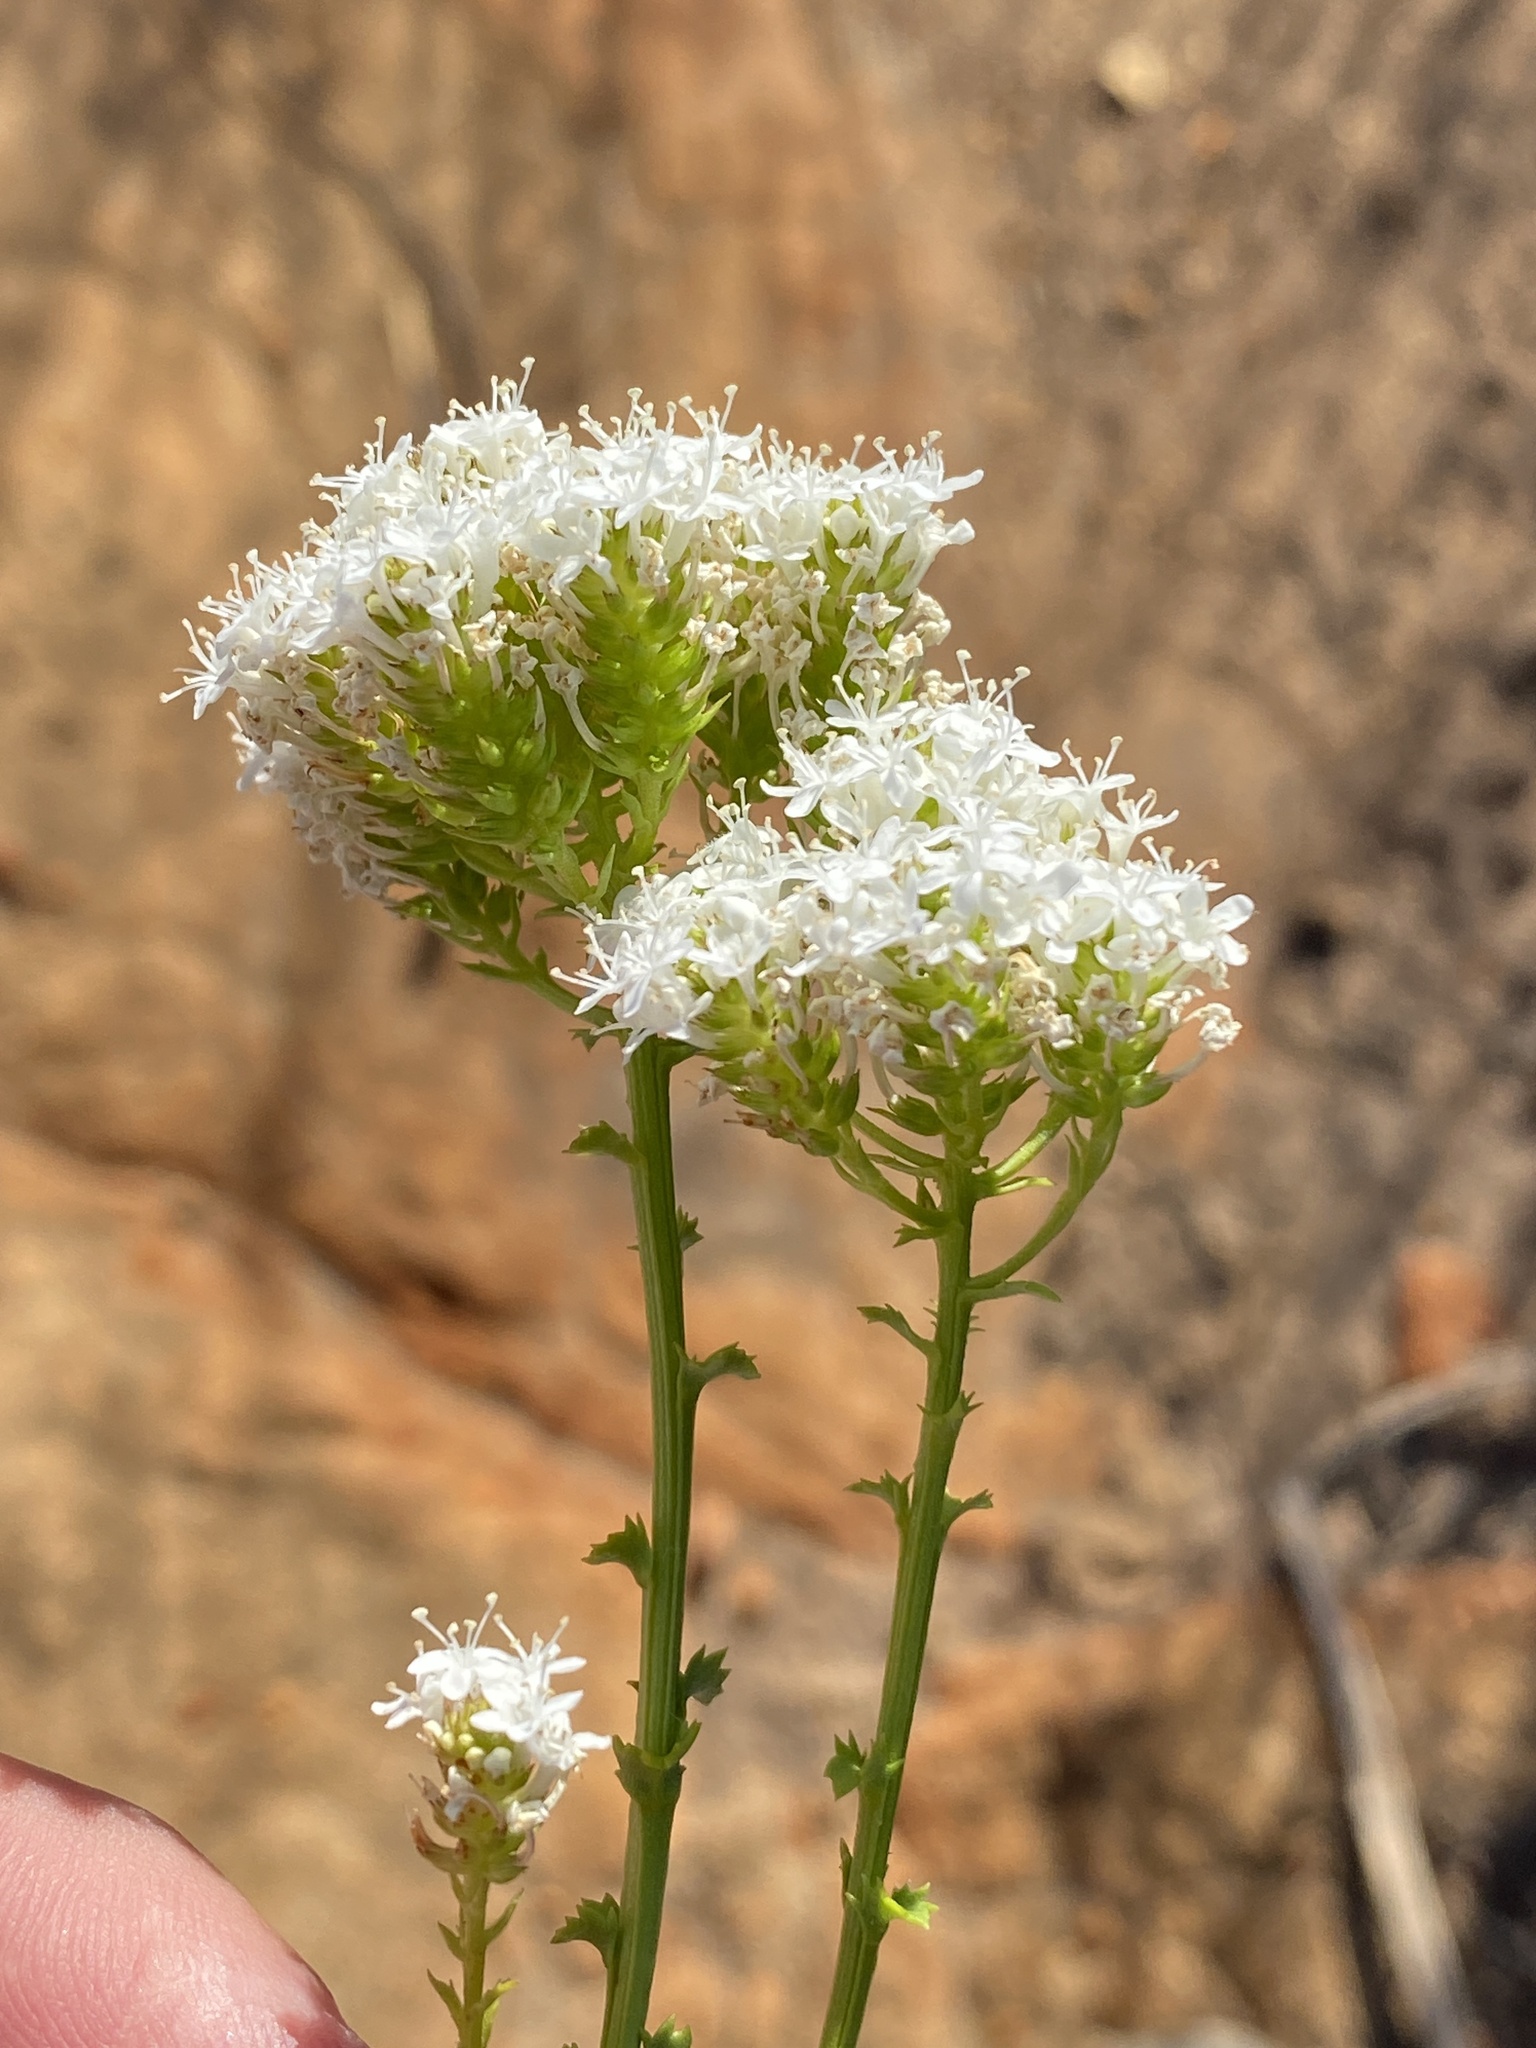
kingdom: Plantae
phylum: Tracheophyta
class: Magnoliopsida
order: Lamiales
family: Scrophulariaceae
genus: Pseudoselago
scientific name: Pseudoselago recurvifolia
